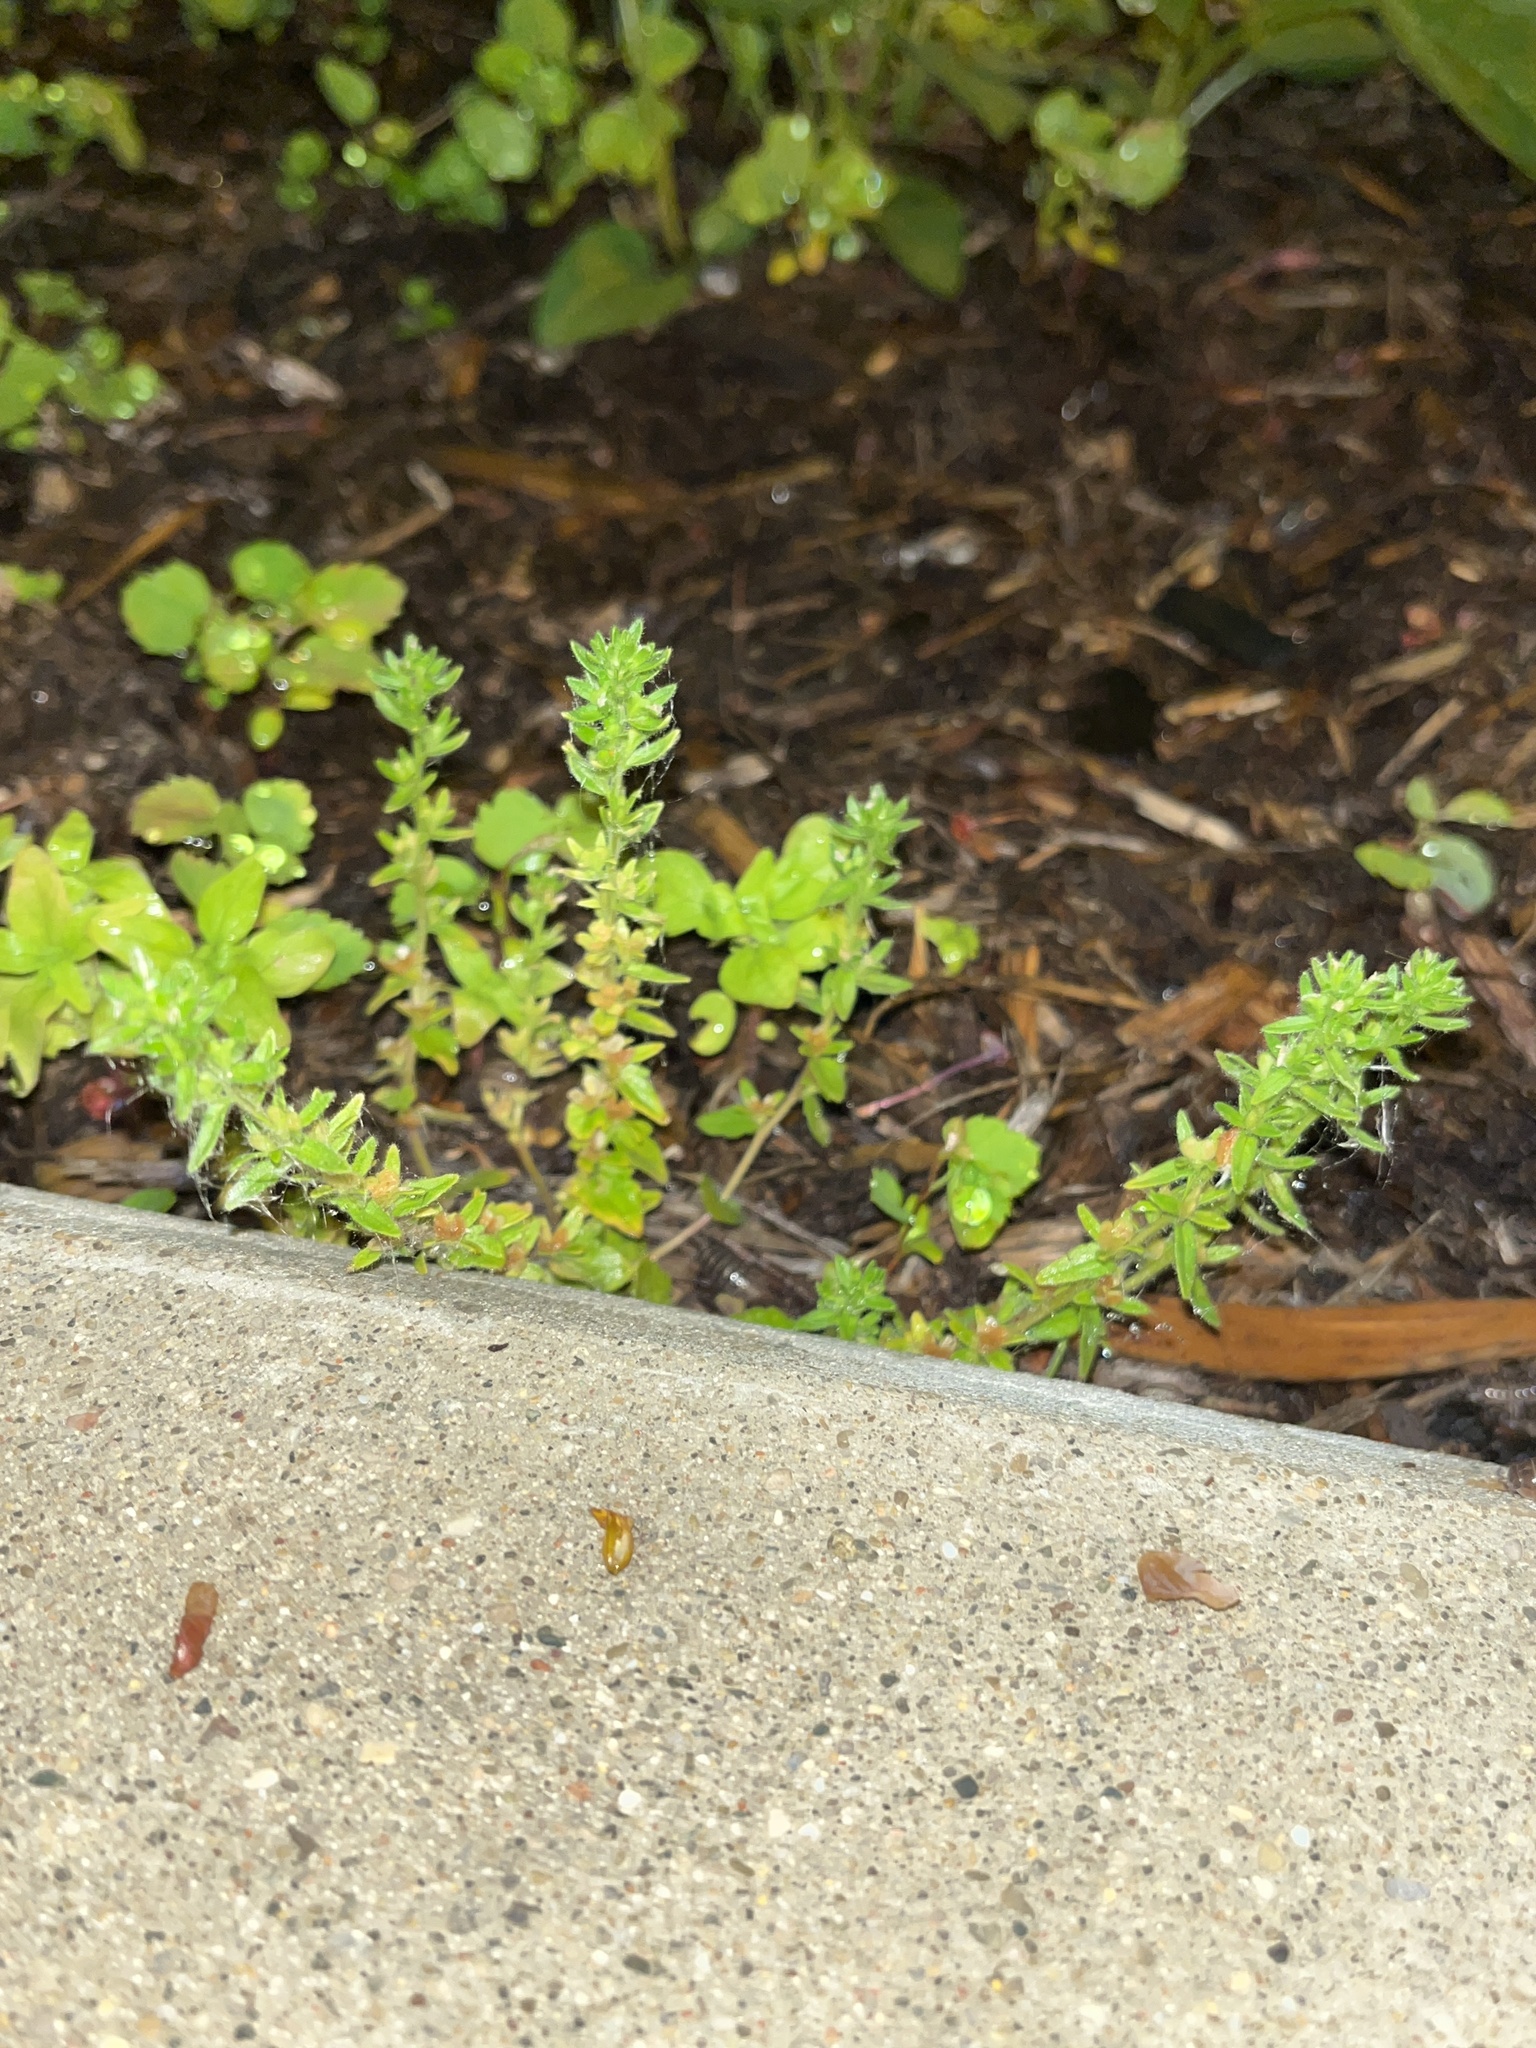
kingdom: Plantae
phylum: Tracheophyta
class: Magnoliopsida
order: Lamiales
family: Plantaginaceae
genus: Veronica
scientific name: Veronica arvensis
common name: Corn speedwell
